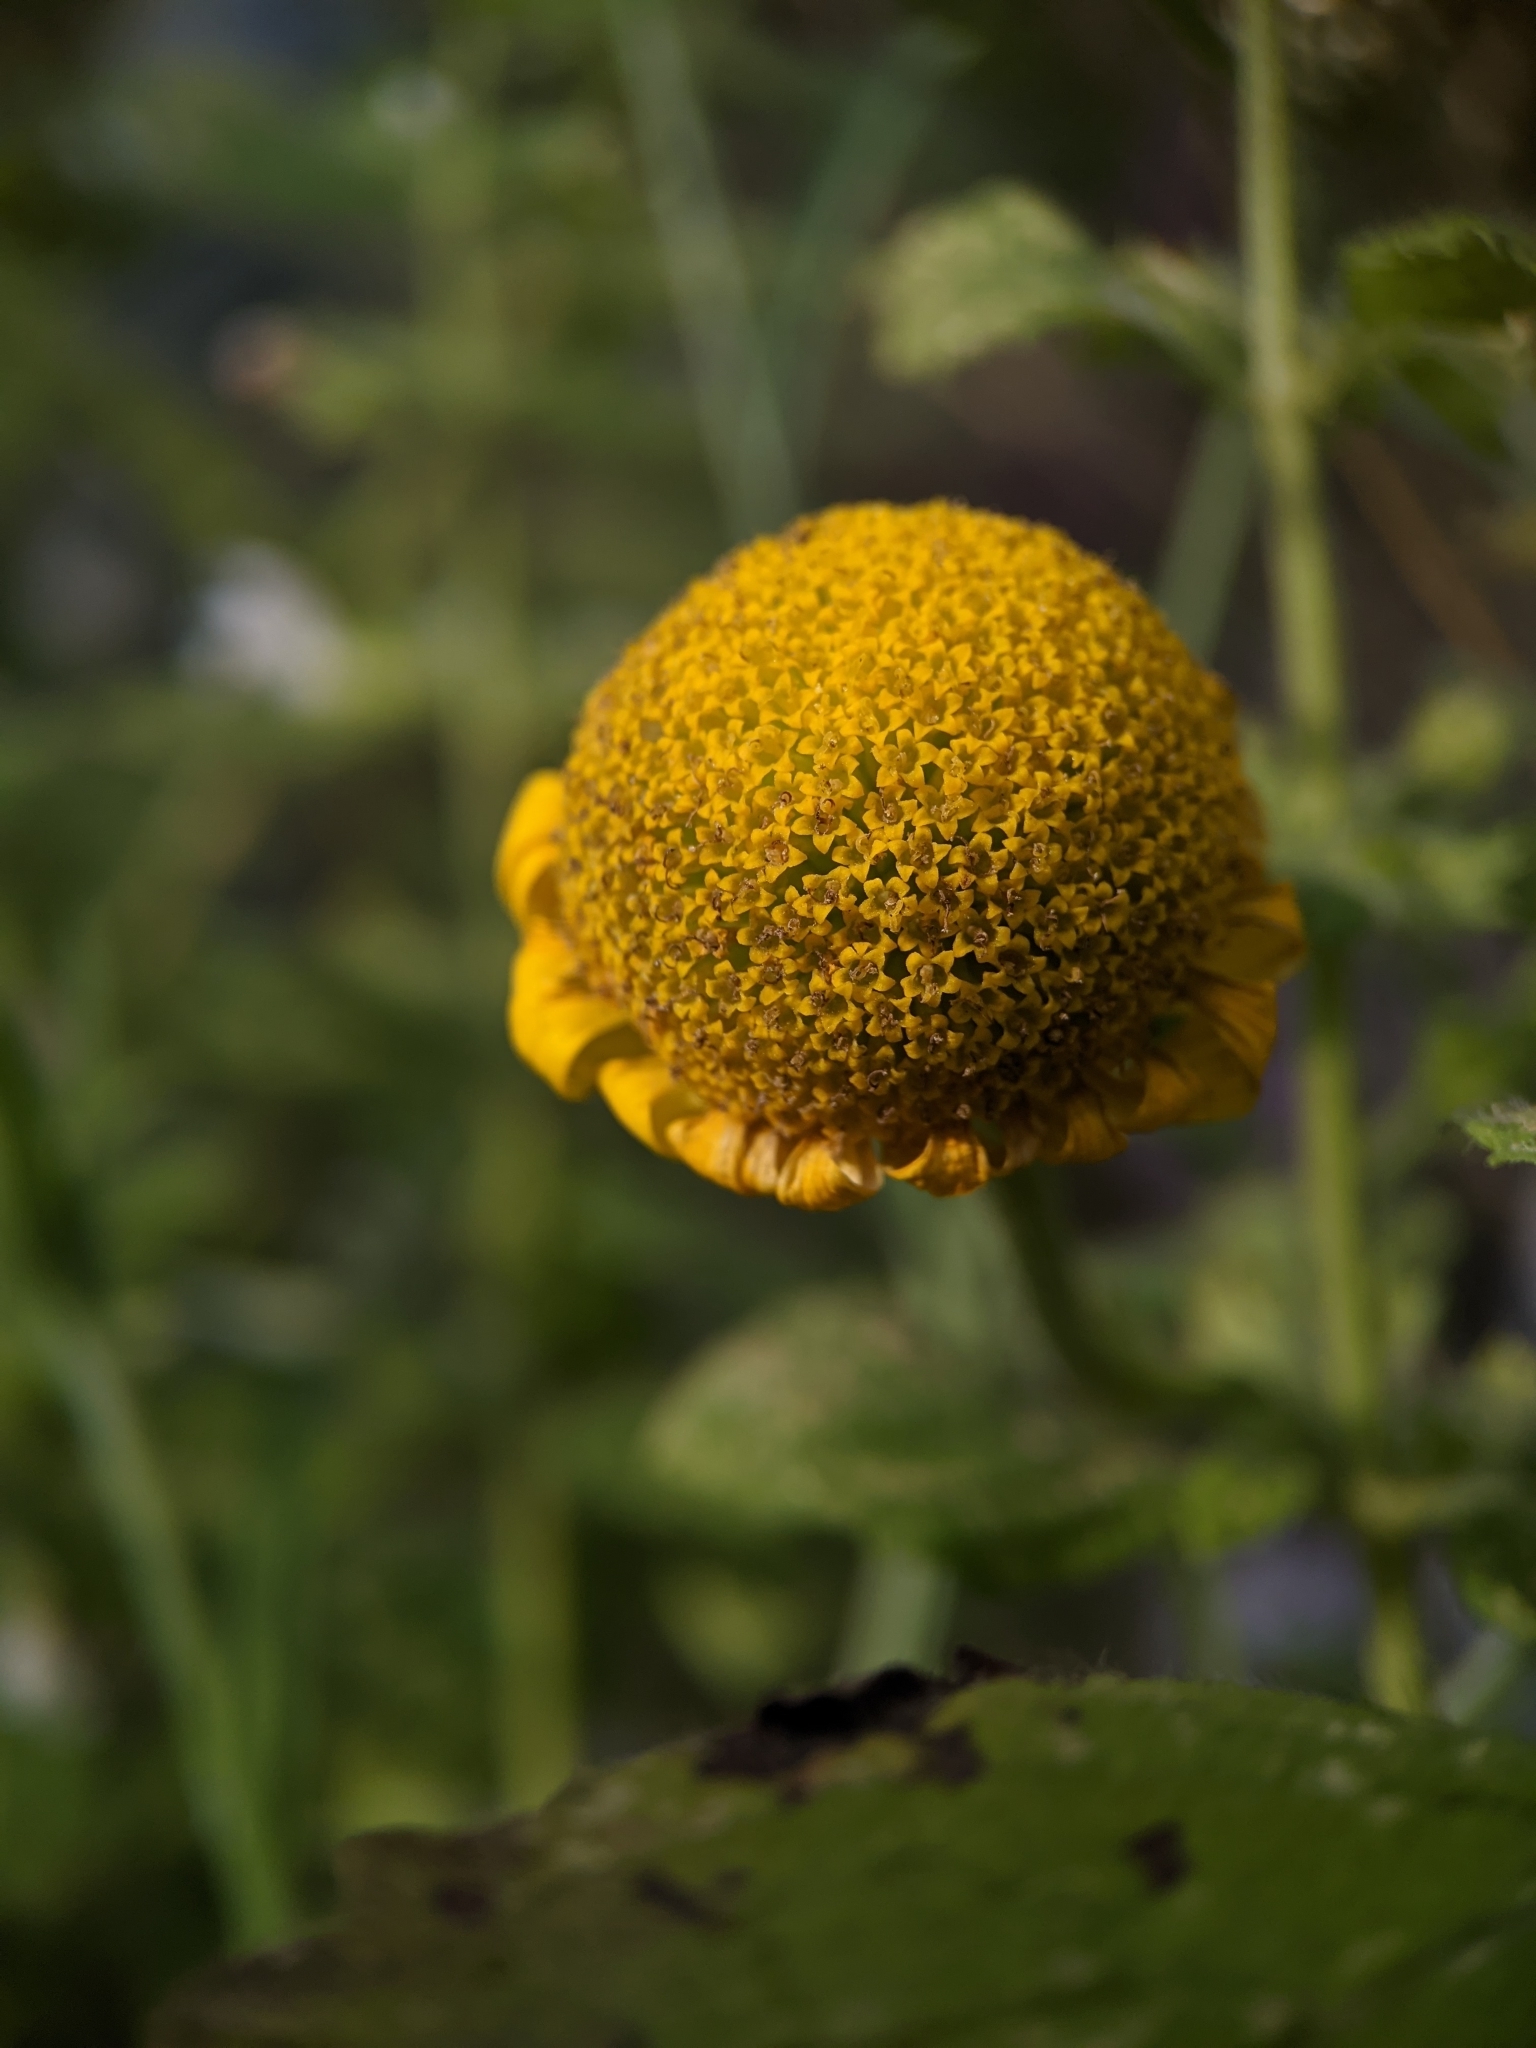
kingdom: Plantae
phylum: Tracheophyta
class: Magnoliopsida
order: Asterales
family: Asteraceae
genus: Cota
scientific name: Cota tinctoria
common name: Golden chamomile
